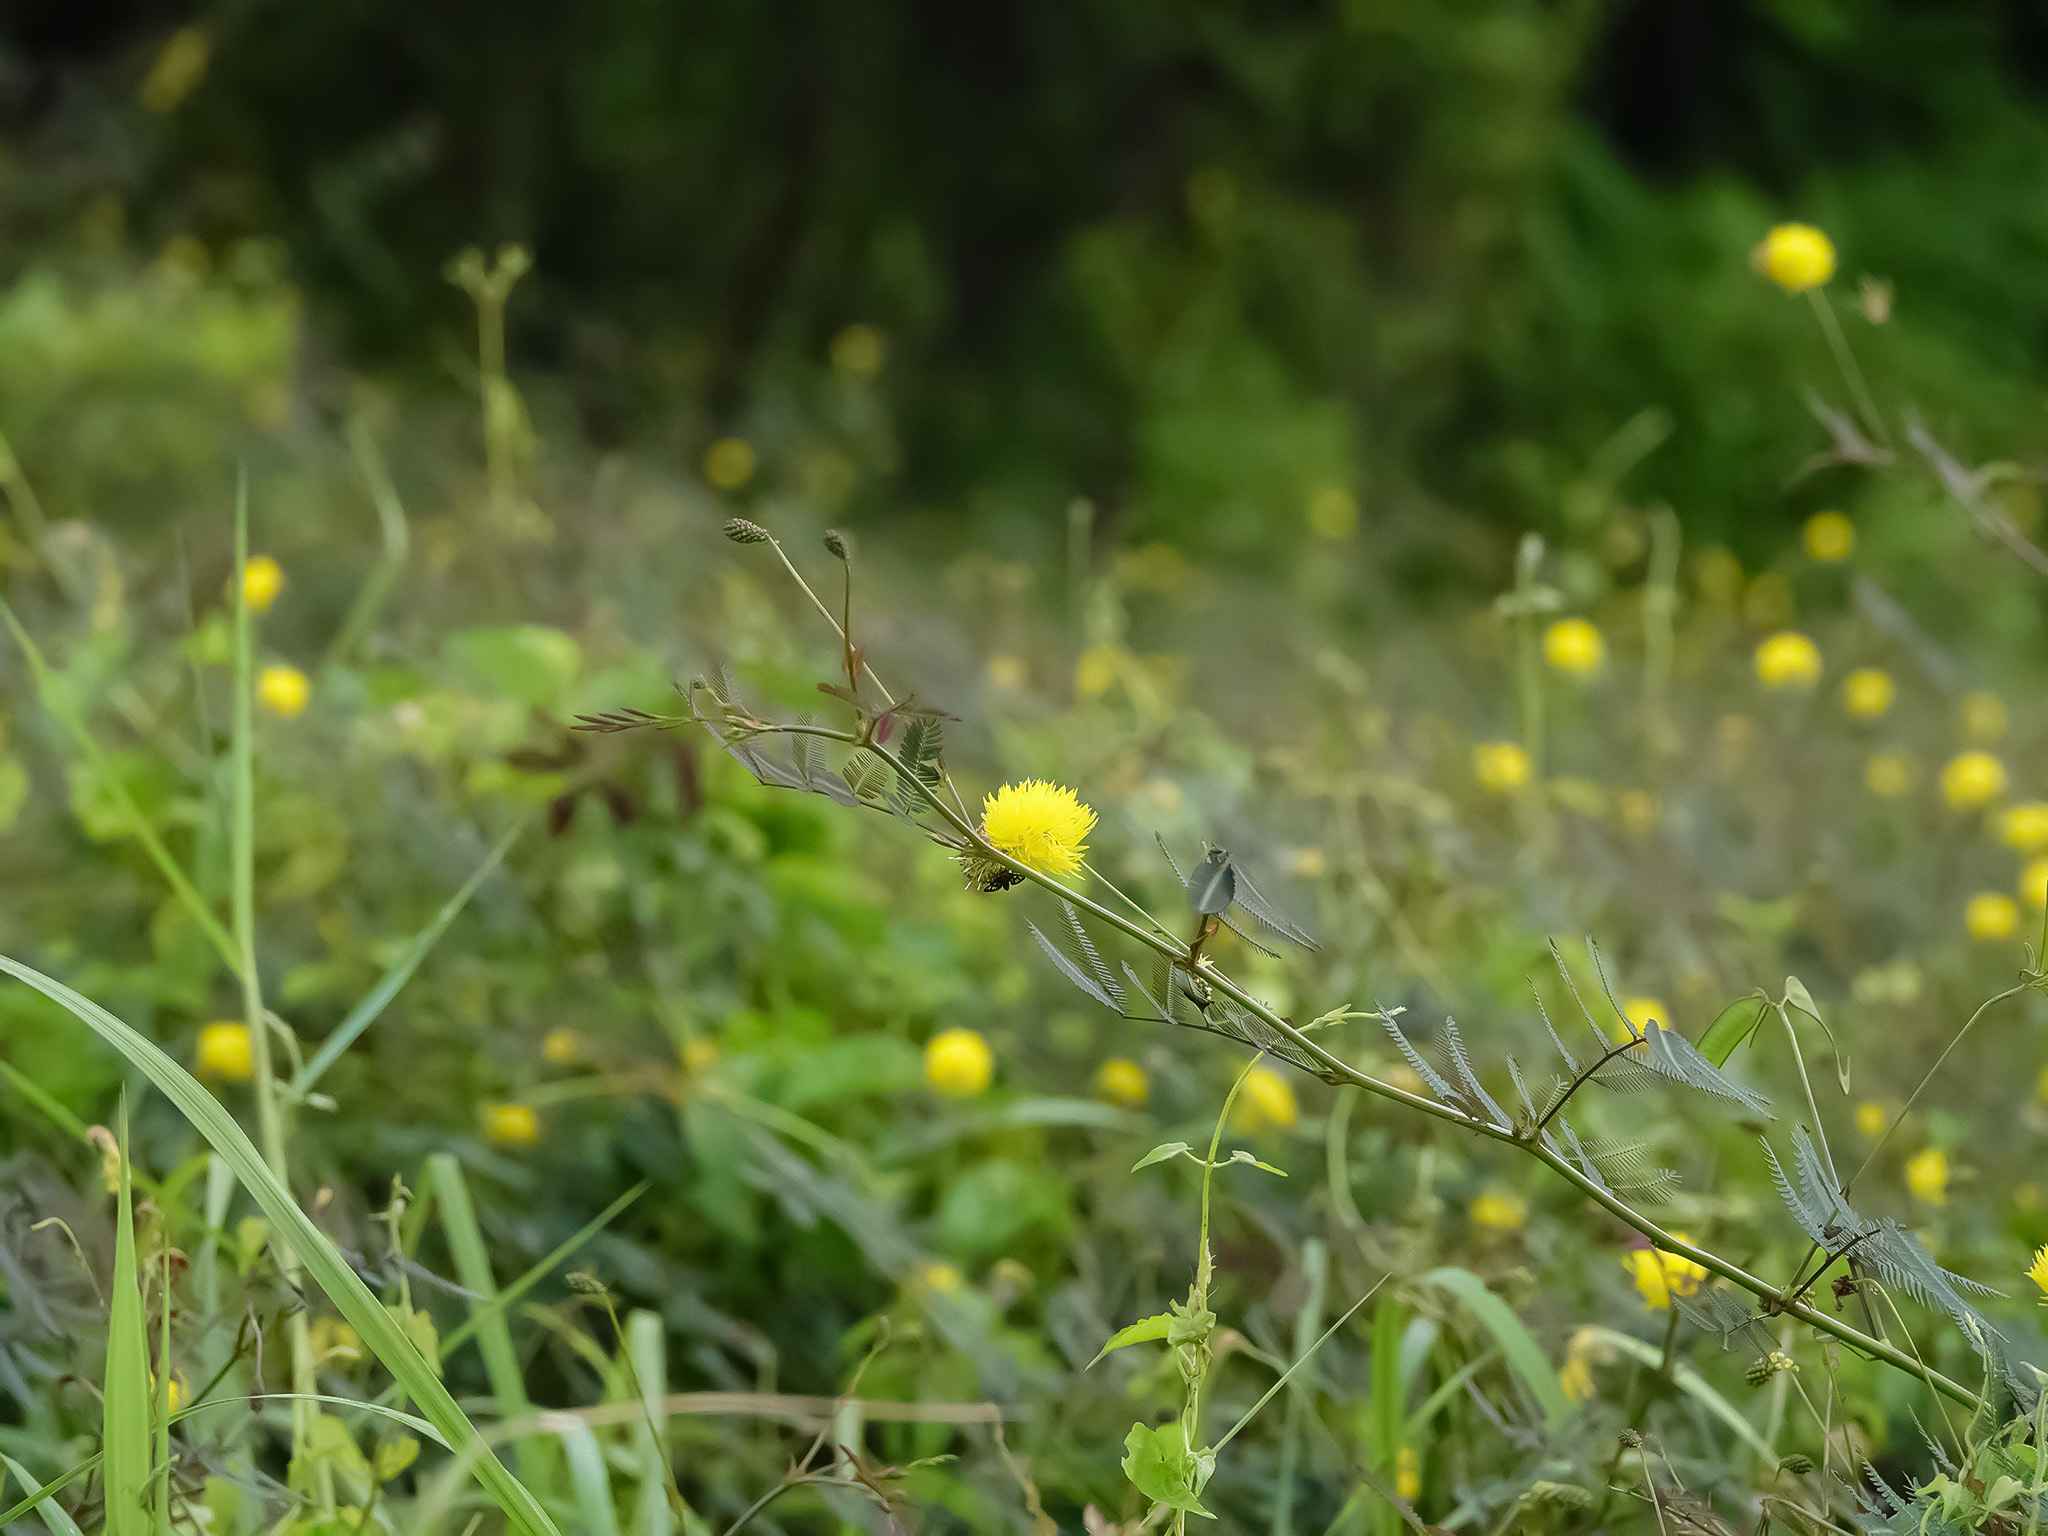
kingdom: Plantae
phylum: Tracheophyta
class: Magnoliopsida
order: Fabales
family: Fabaceae
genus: Neptunia
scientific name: Neptunia plena
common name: Dead and awake
